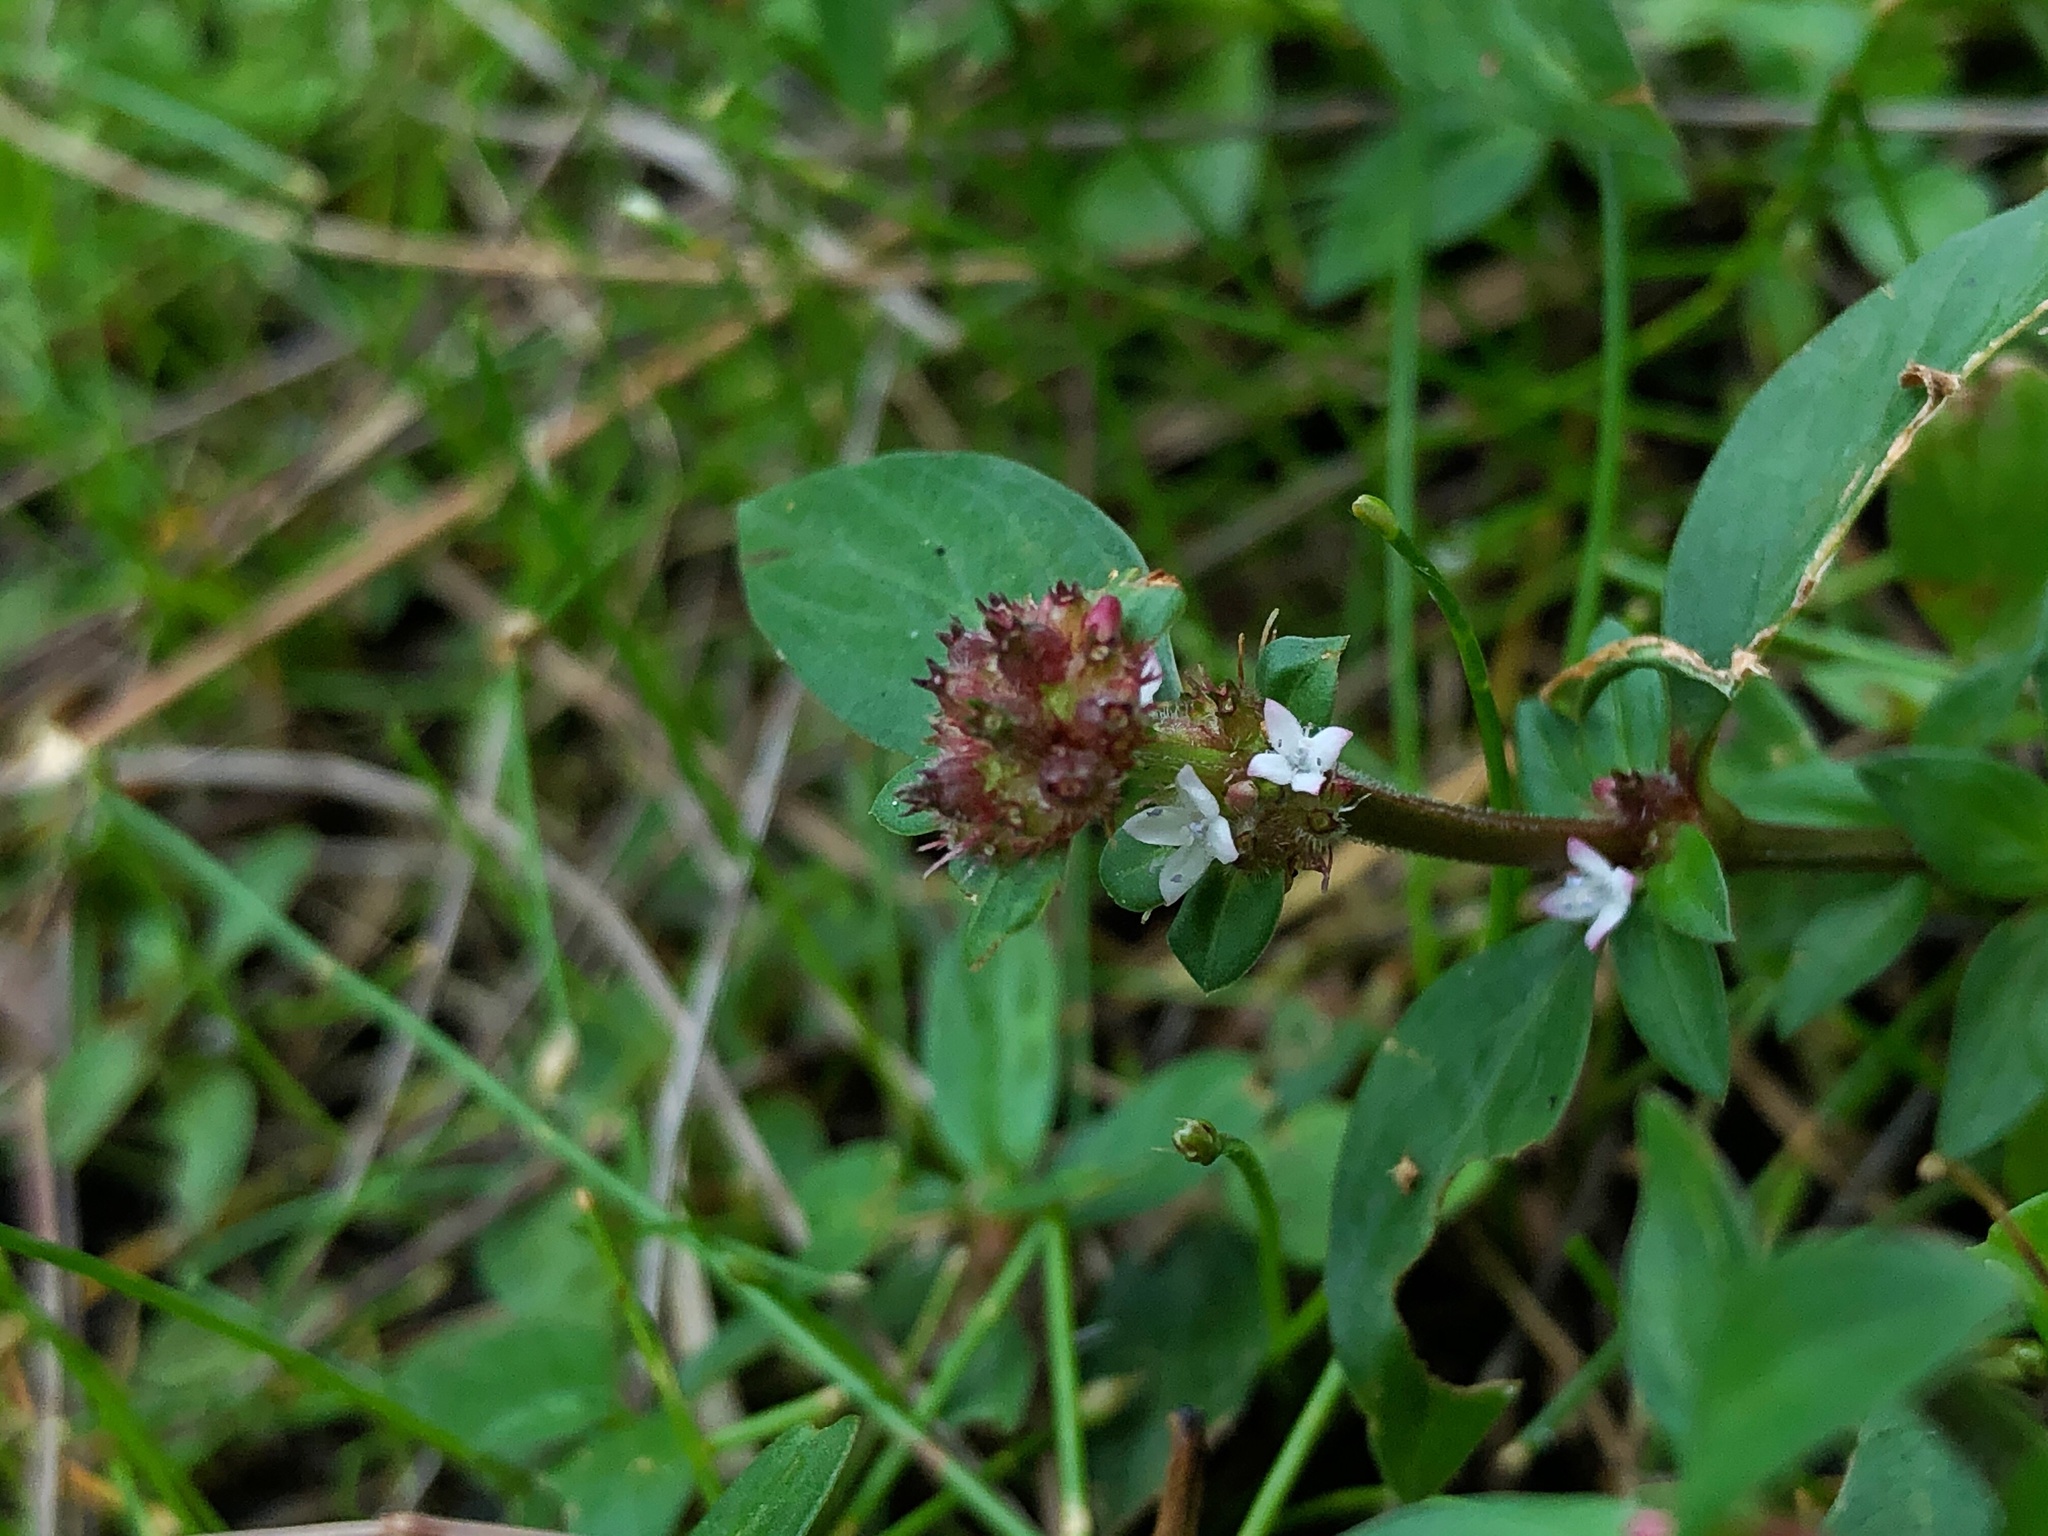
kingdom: Plantae
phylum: Tracheophyta
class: Magnoliopsida
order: Gentianales
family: Rubiaceae
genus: Spermacoce
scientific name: Spermacoce remota
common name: Woodland false buttonweed
